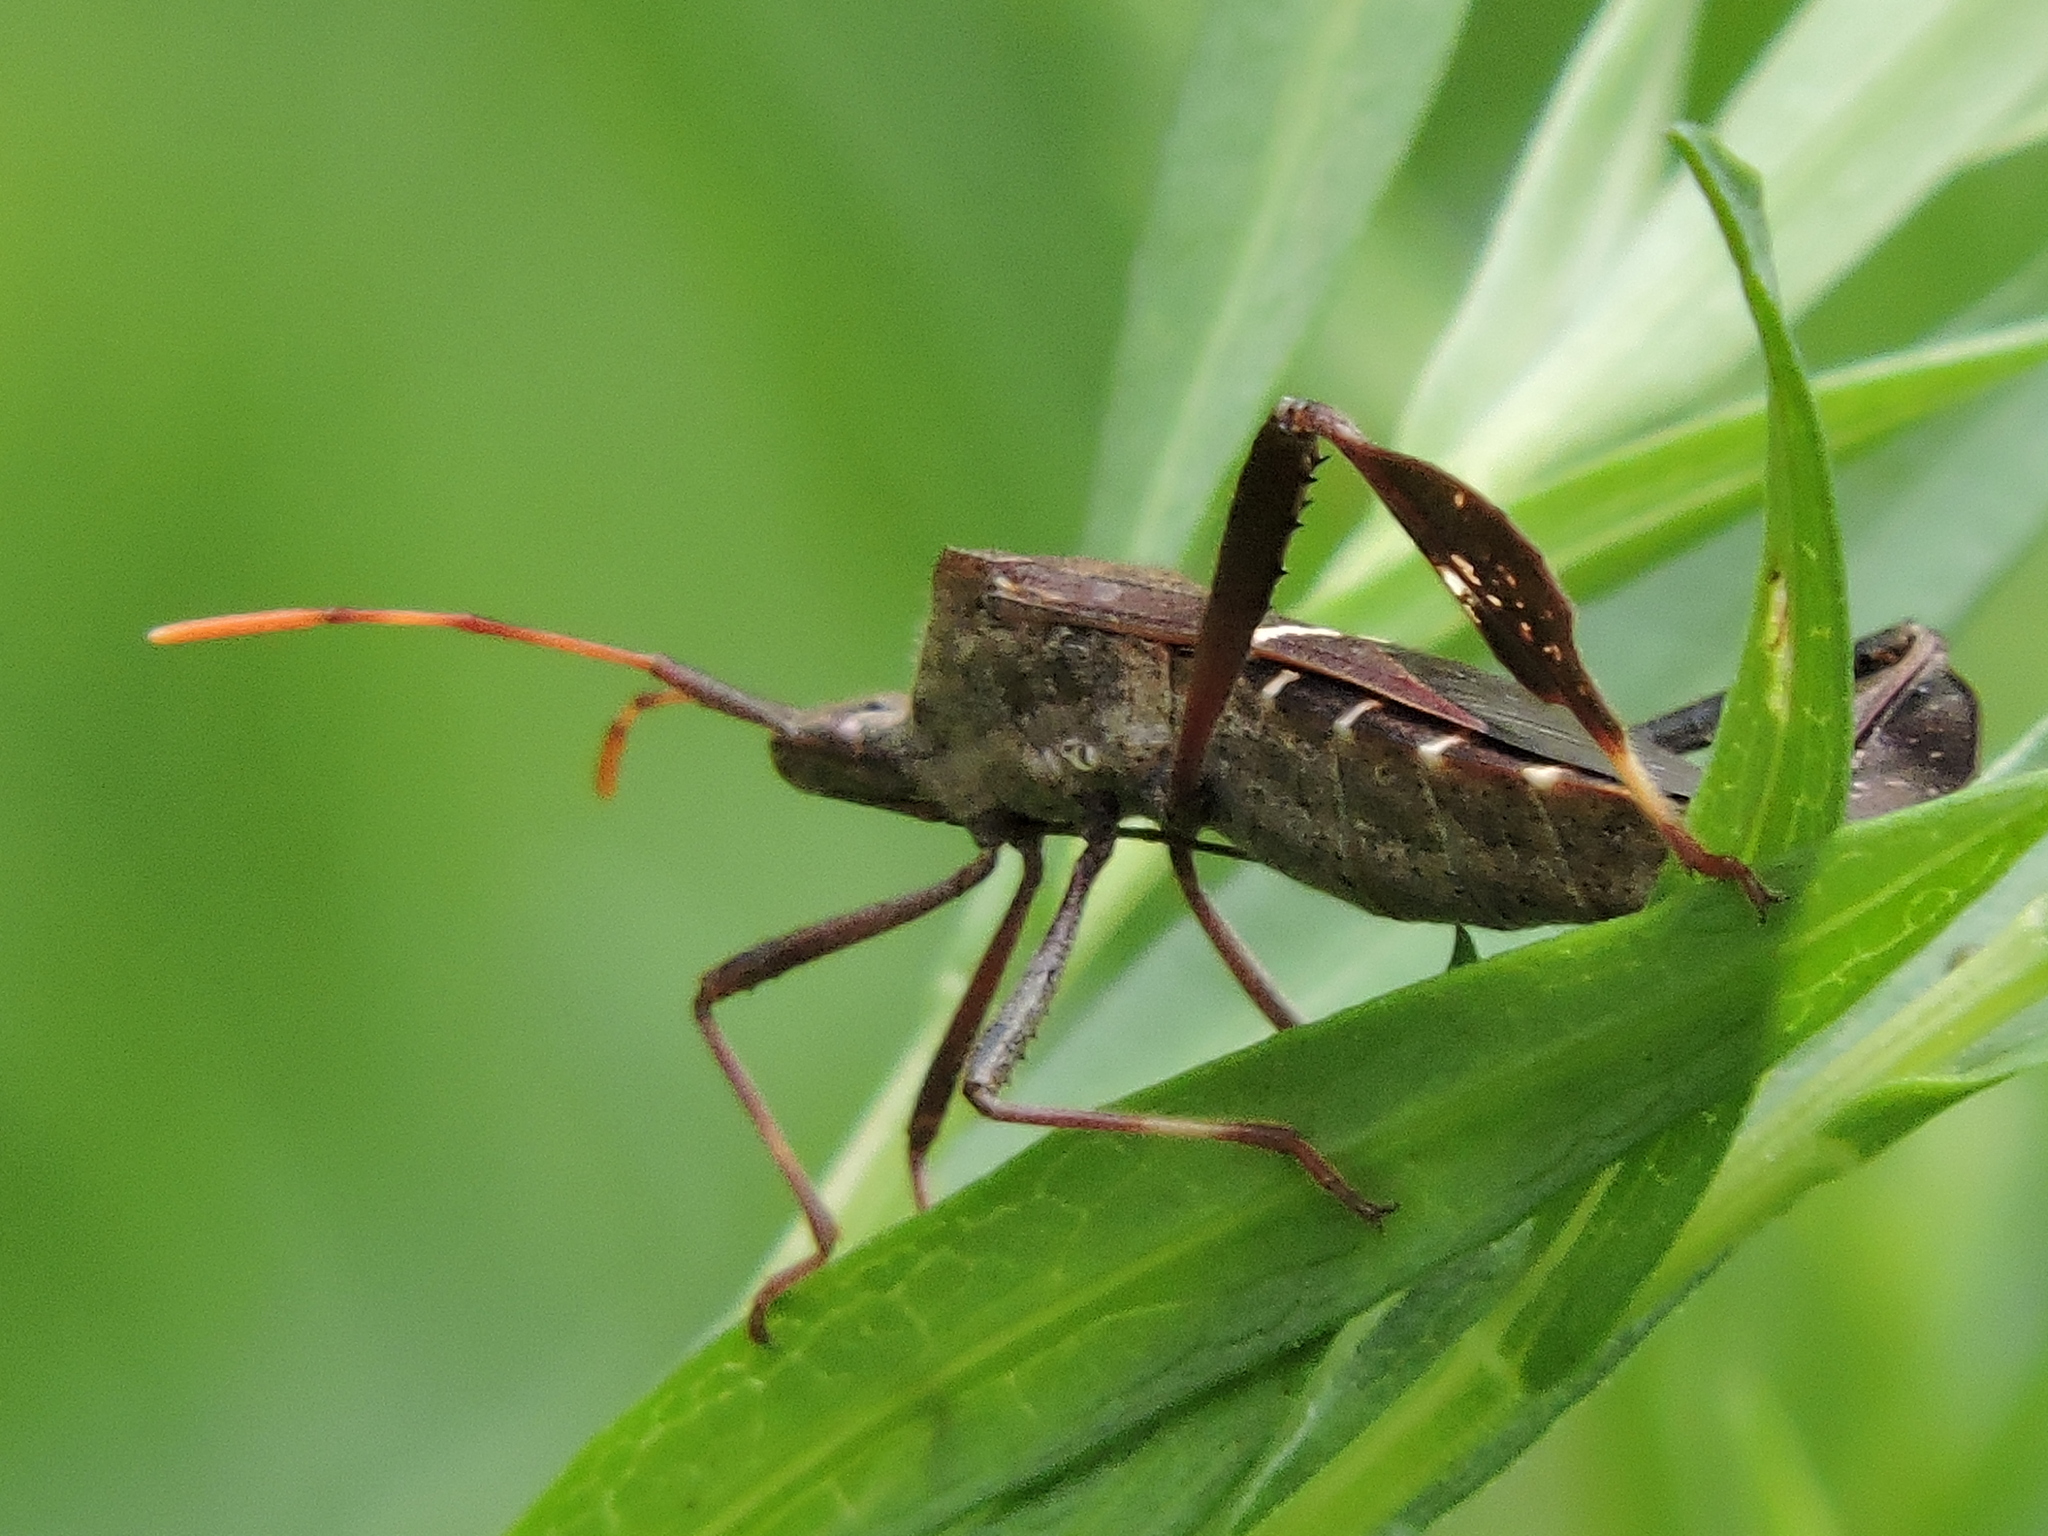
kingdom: Animalia
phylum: Arthropoda
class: Insecta
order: Hemiptera
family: Coreidae
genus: Leptoglossus
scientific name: Leptoglossus phyllopus
